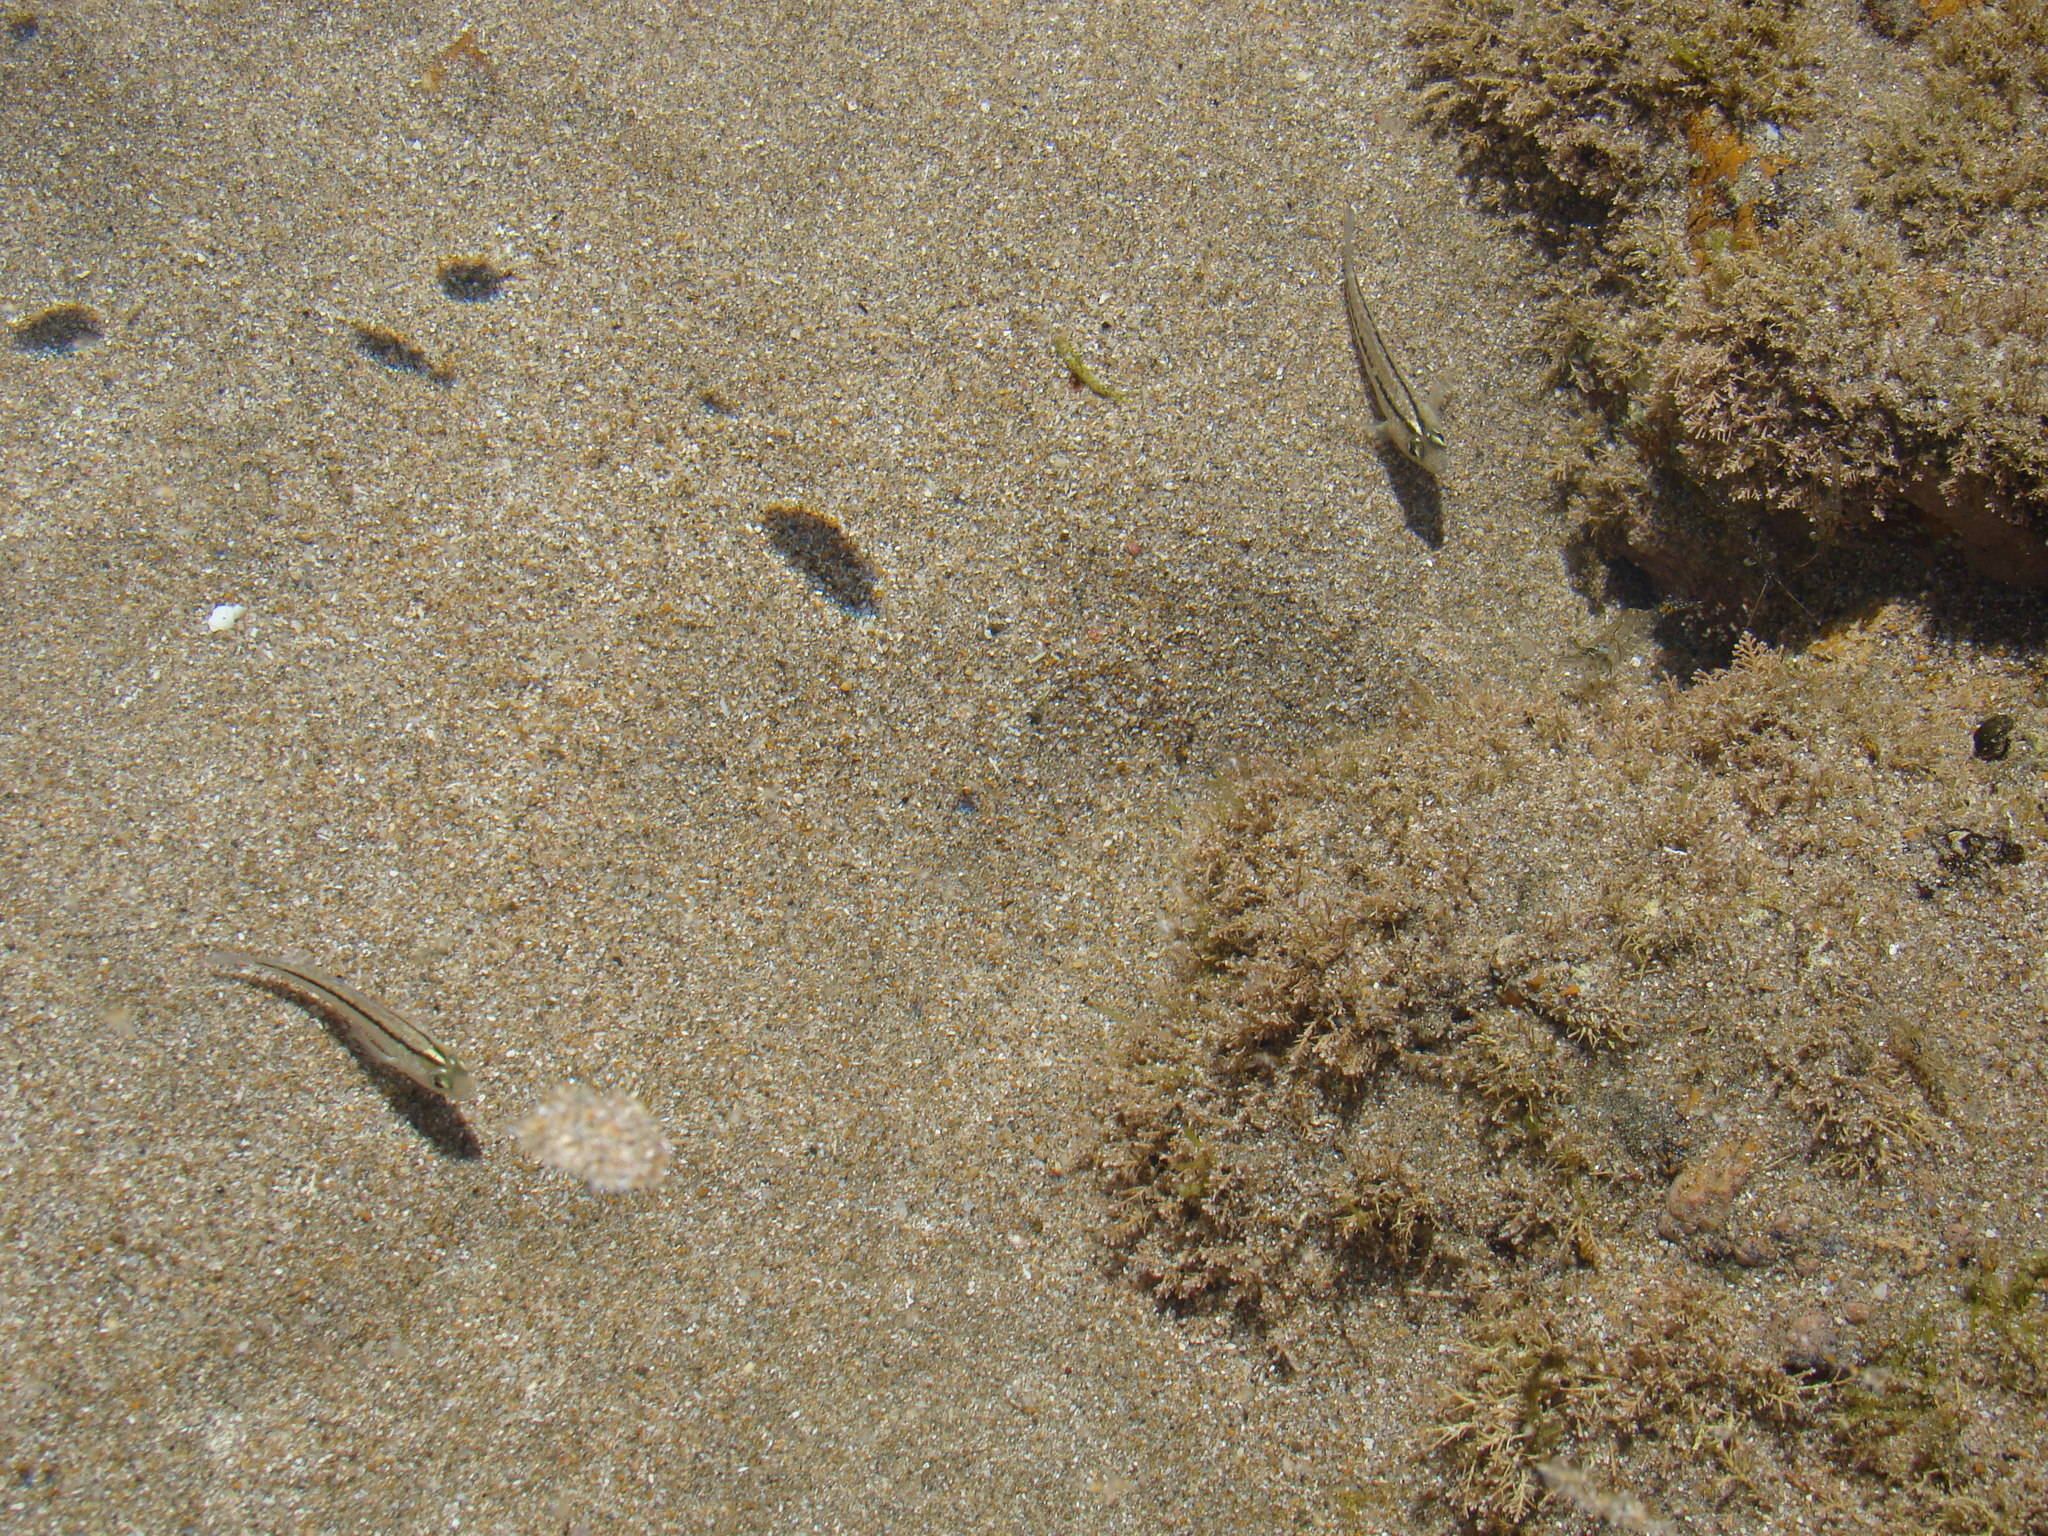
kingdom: Animalia
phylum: Chordata
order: Perciformes
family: Tripterygiidae
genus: Forsterygion
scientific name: Forsterygion lapillum
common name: Common triplefin
